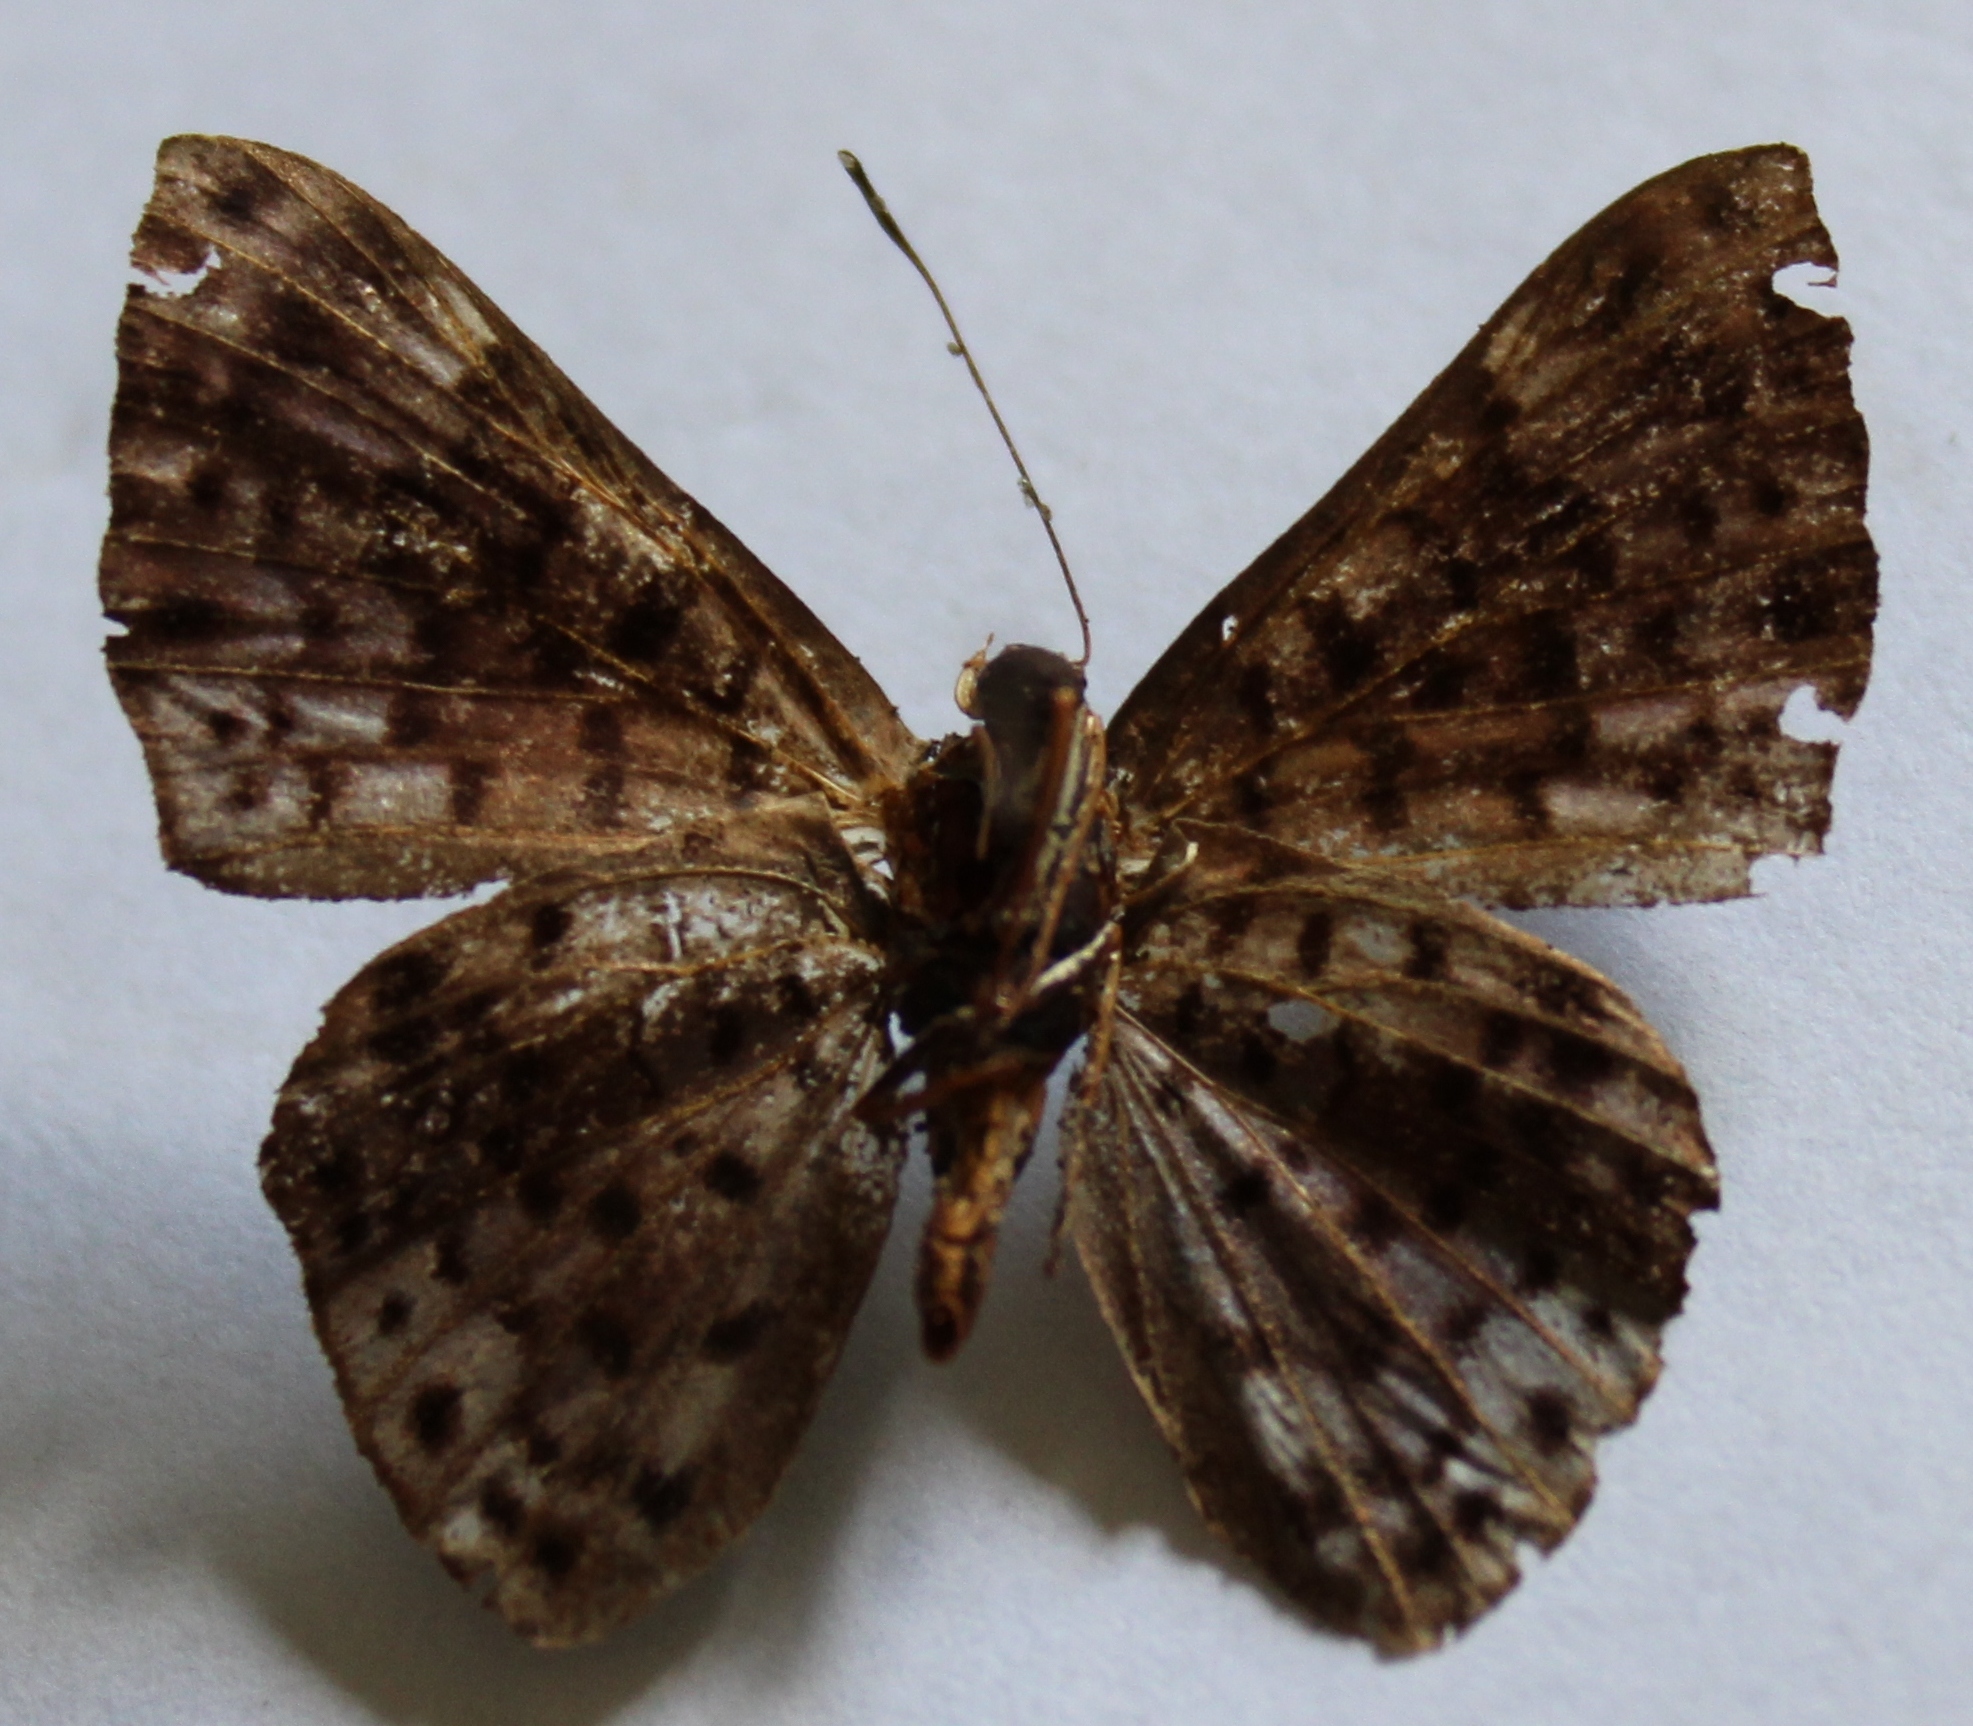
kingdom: Animalia
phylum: Arthropoda
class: Insecta
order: Lepidoptera
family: Riodinidae
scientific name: Riodinidae
